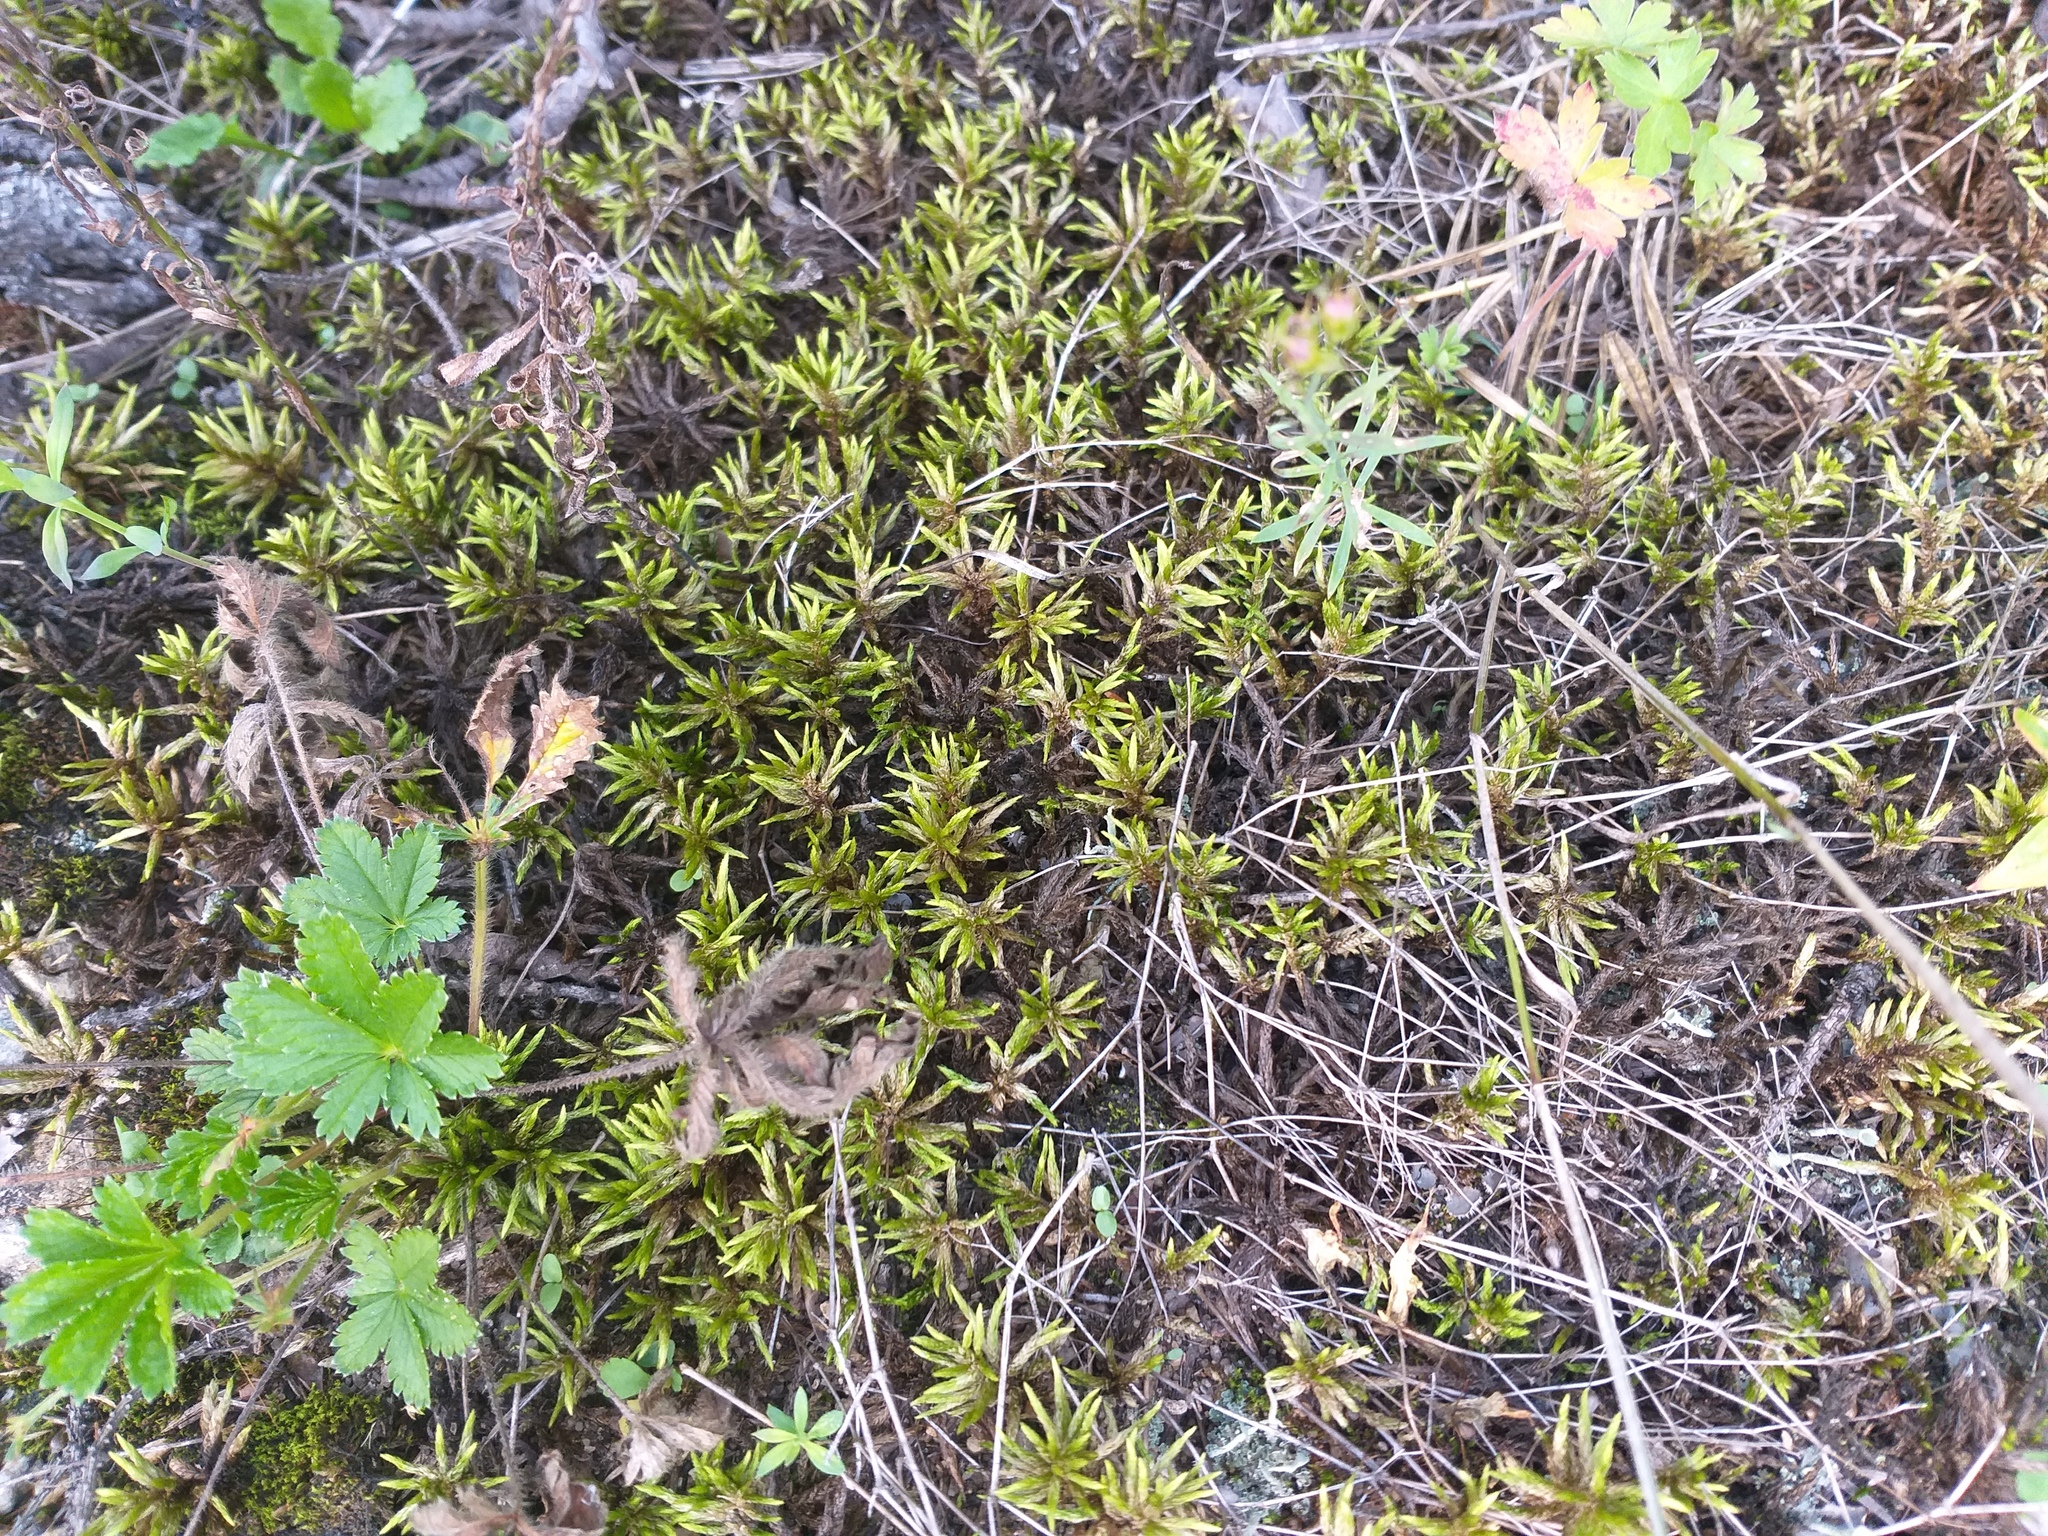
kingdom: Plantae
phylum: Tracheophyta
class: Magnoliopsida
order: Rosales
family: Rosaceae
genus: Potentilla
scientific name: Potentilla thuringiaca
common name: European cinquefoil
